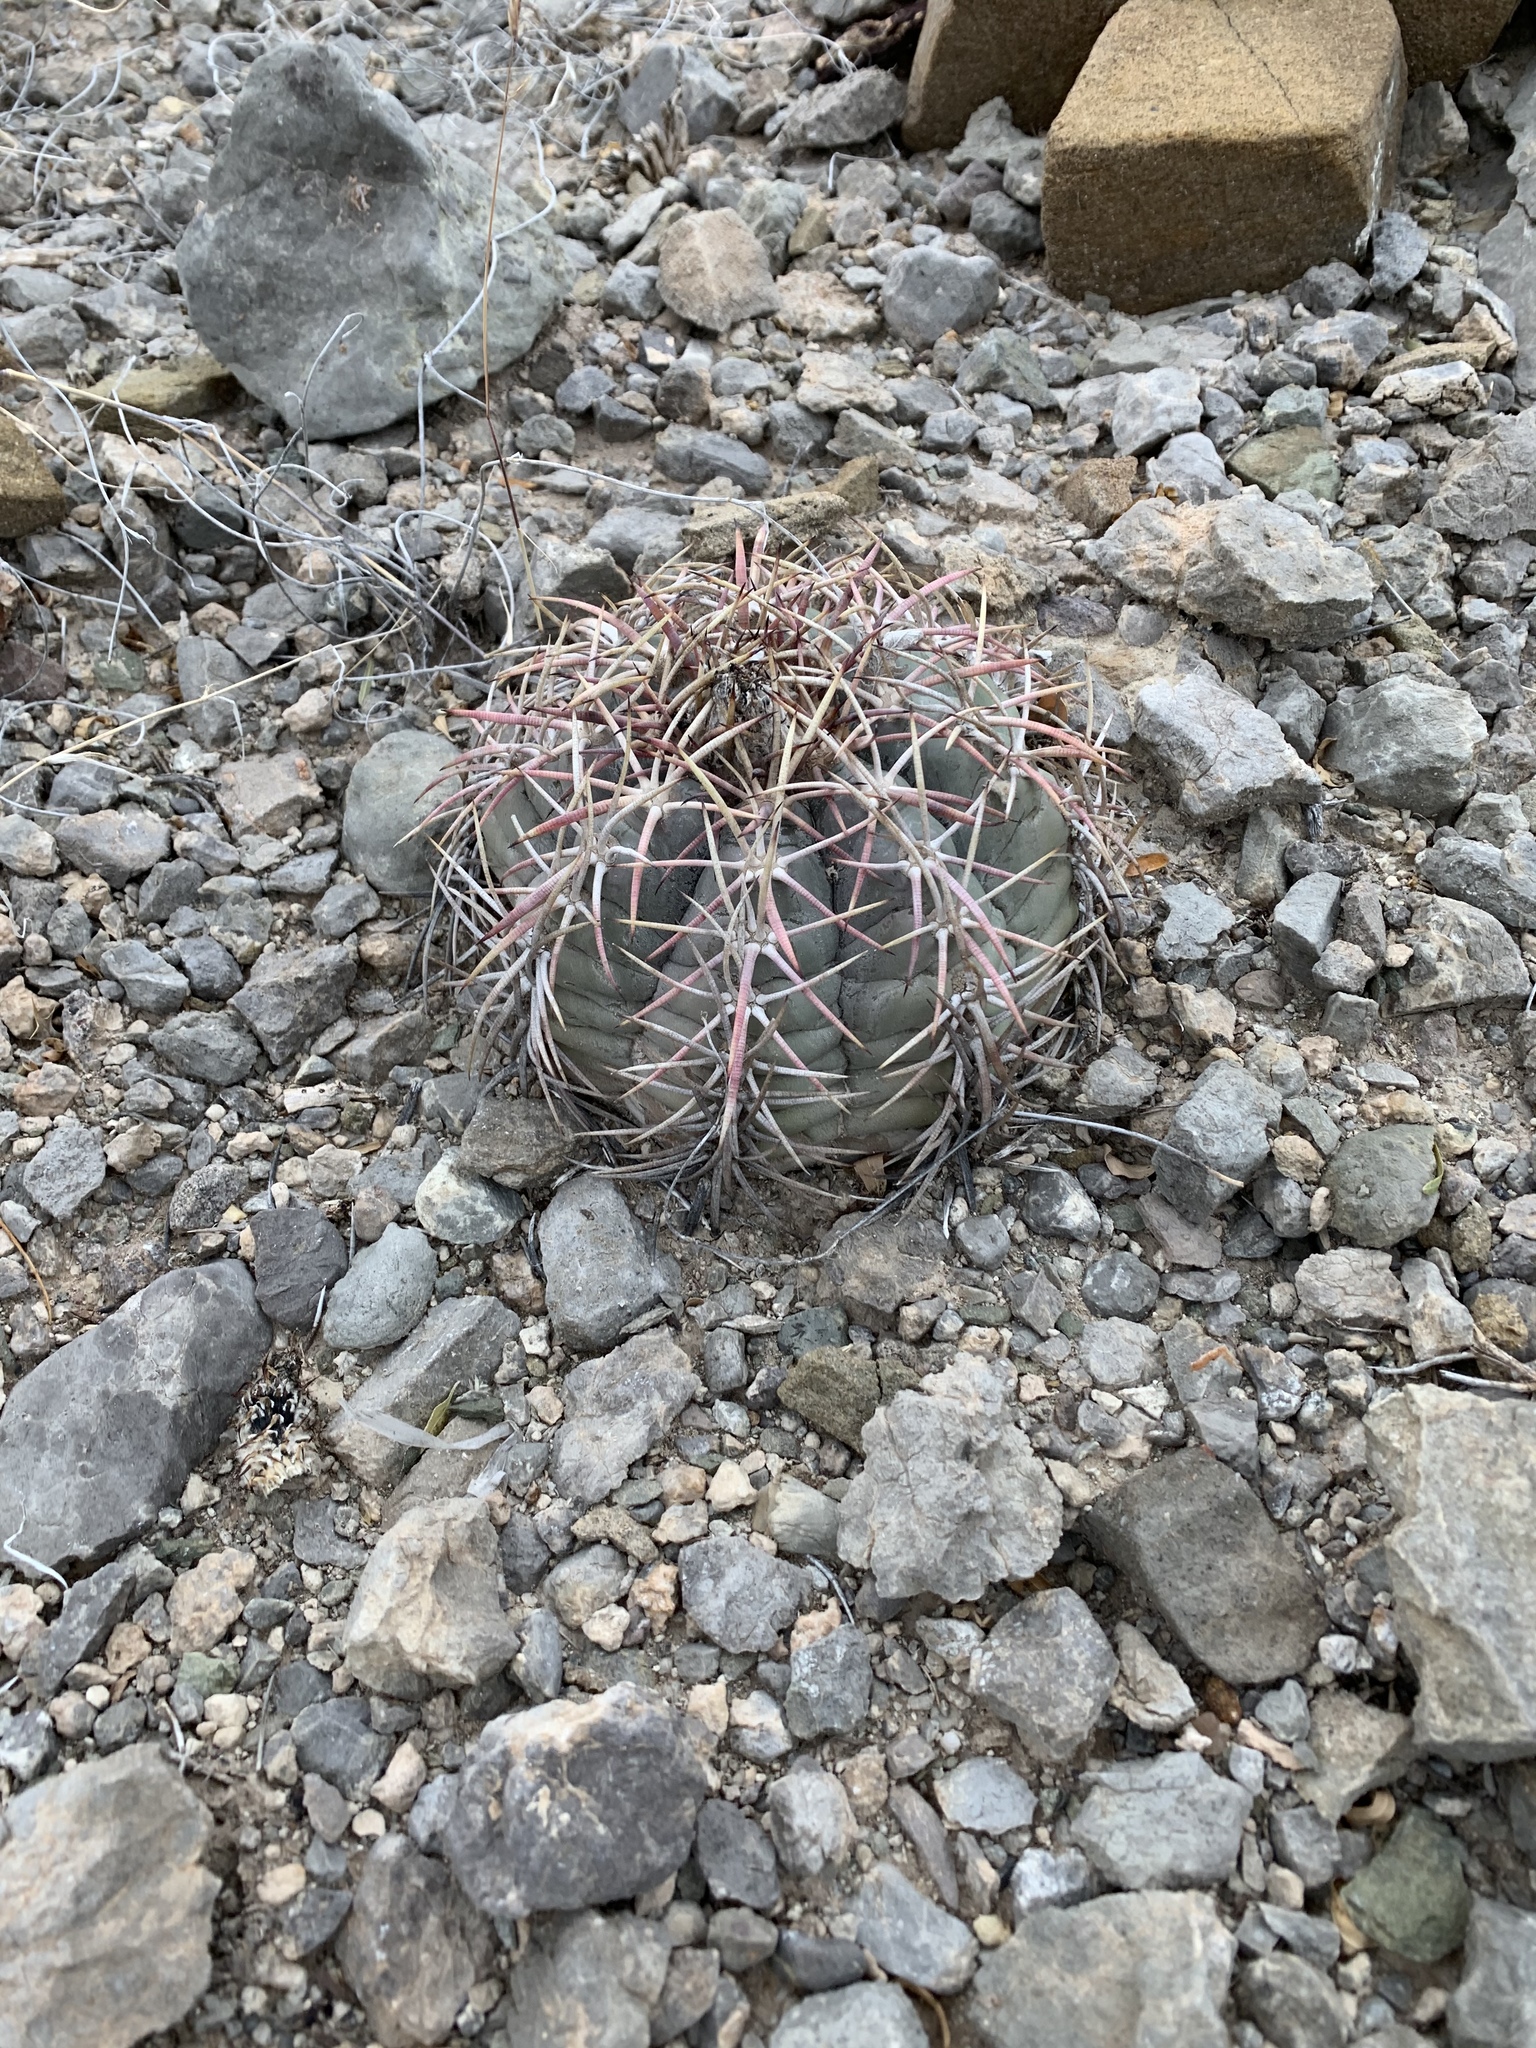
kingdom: Plantae
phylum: Tracheophyta
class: Magnoliopsida
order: Caryophyllales
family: Cactaceae
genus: Echinocactus
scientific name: Echinocactus horizonthalonius
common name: Devilshead
